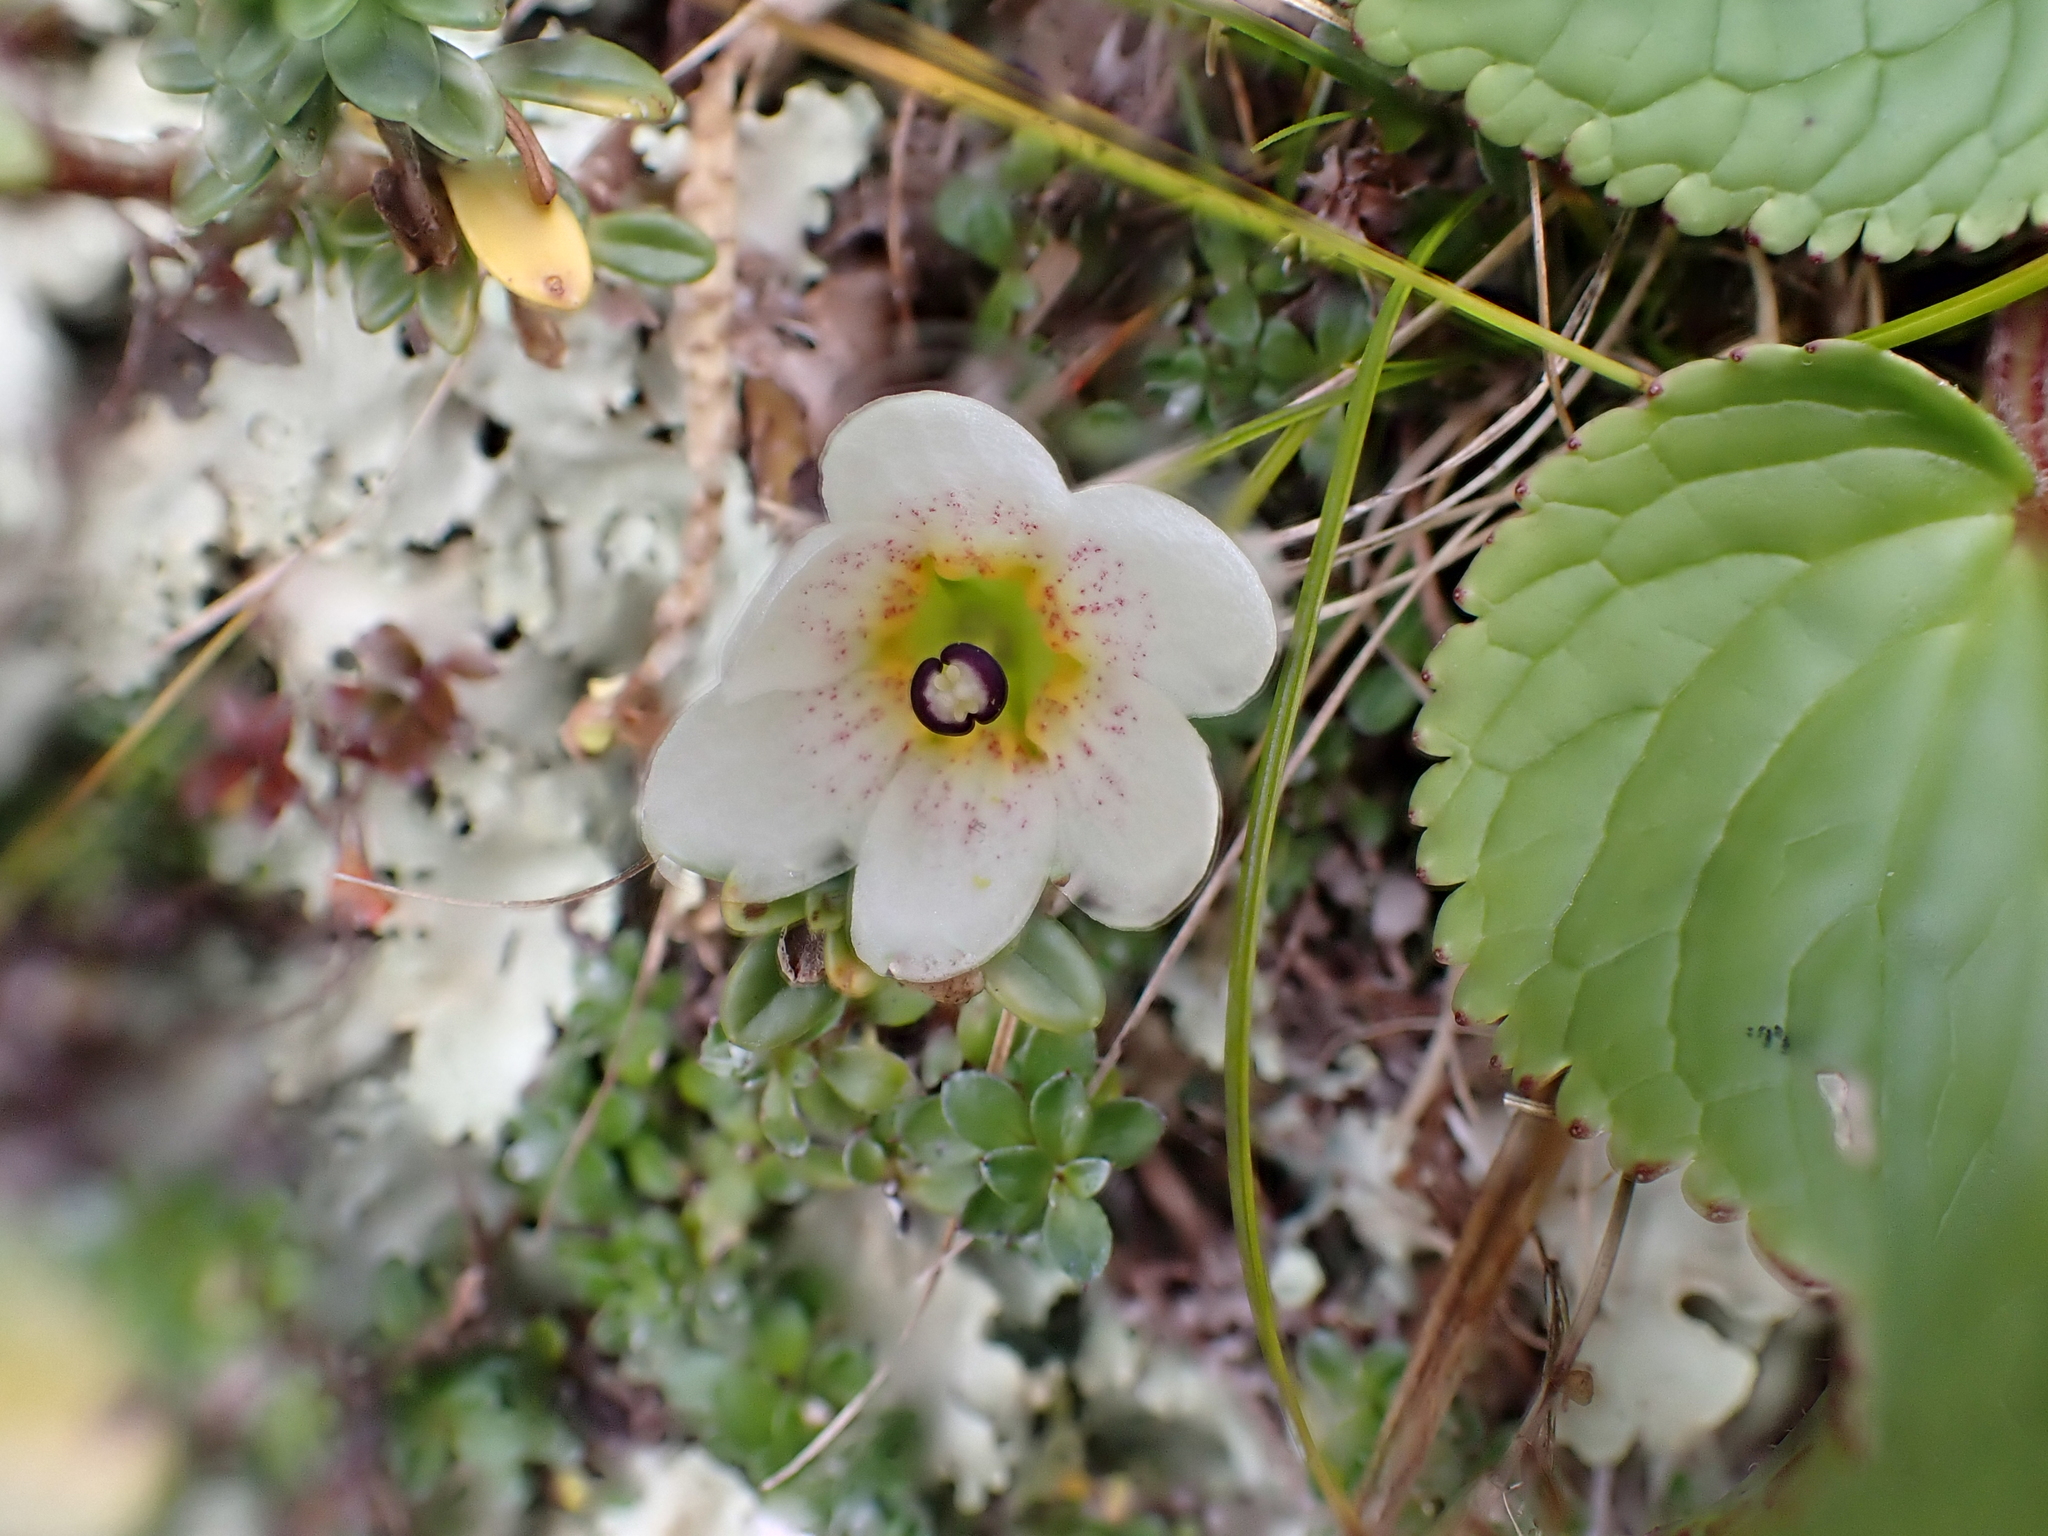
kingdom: Plantae
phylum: Tracheophyta
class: Magnoliopsida
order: Asterales
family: Stylidiaceae
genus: Forstera
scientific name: Forstera tenella
